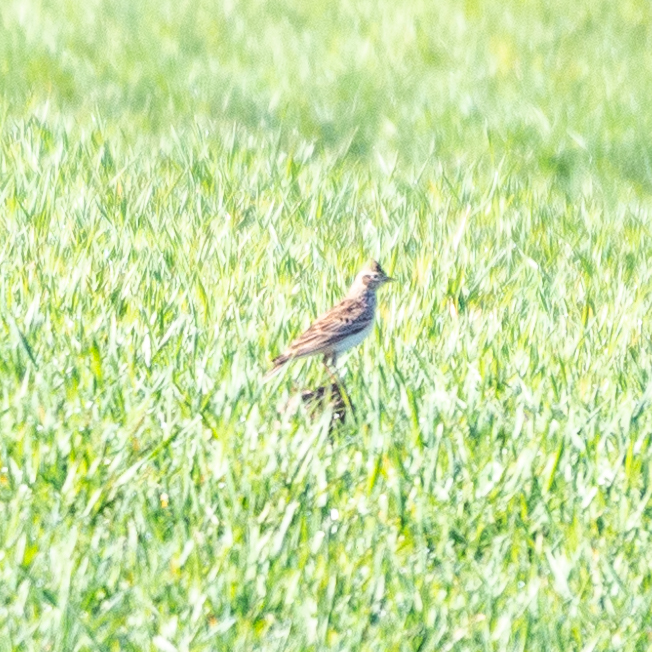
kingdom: Animalia
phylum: Chordata
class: Aves
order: Passeriformes
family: Alaudidae
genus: Alauda
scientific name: Alauda arvensis
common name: Eurasian skylark
